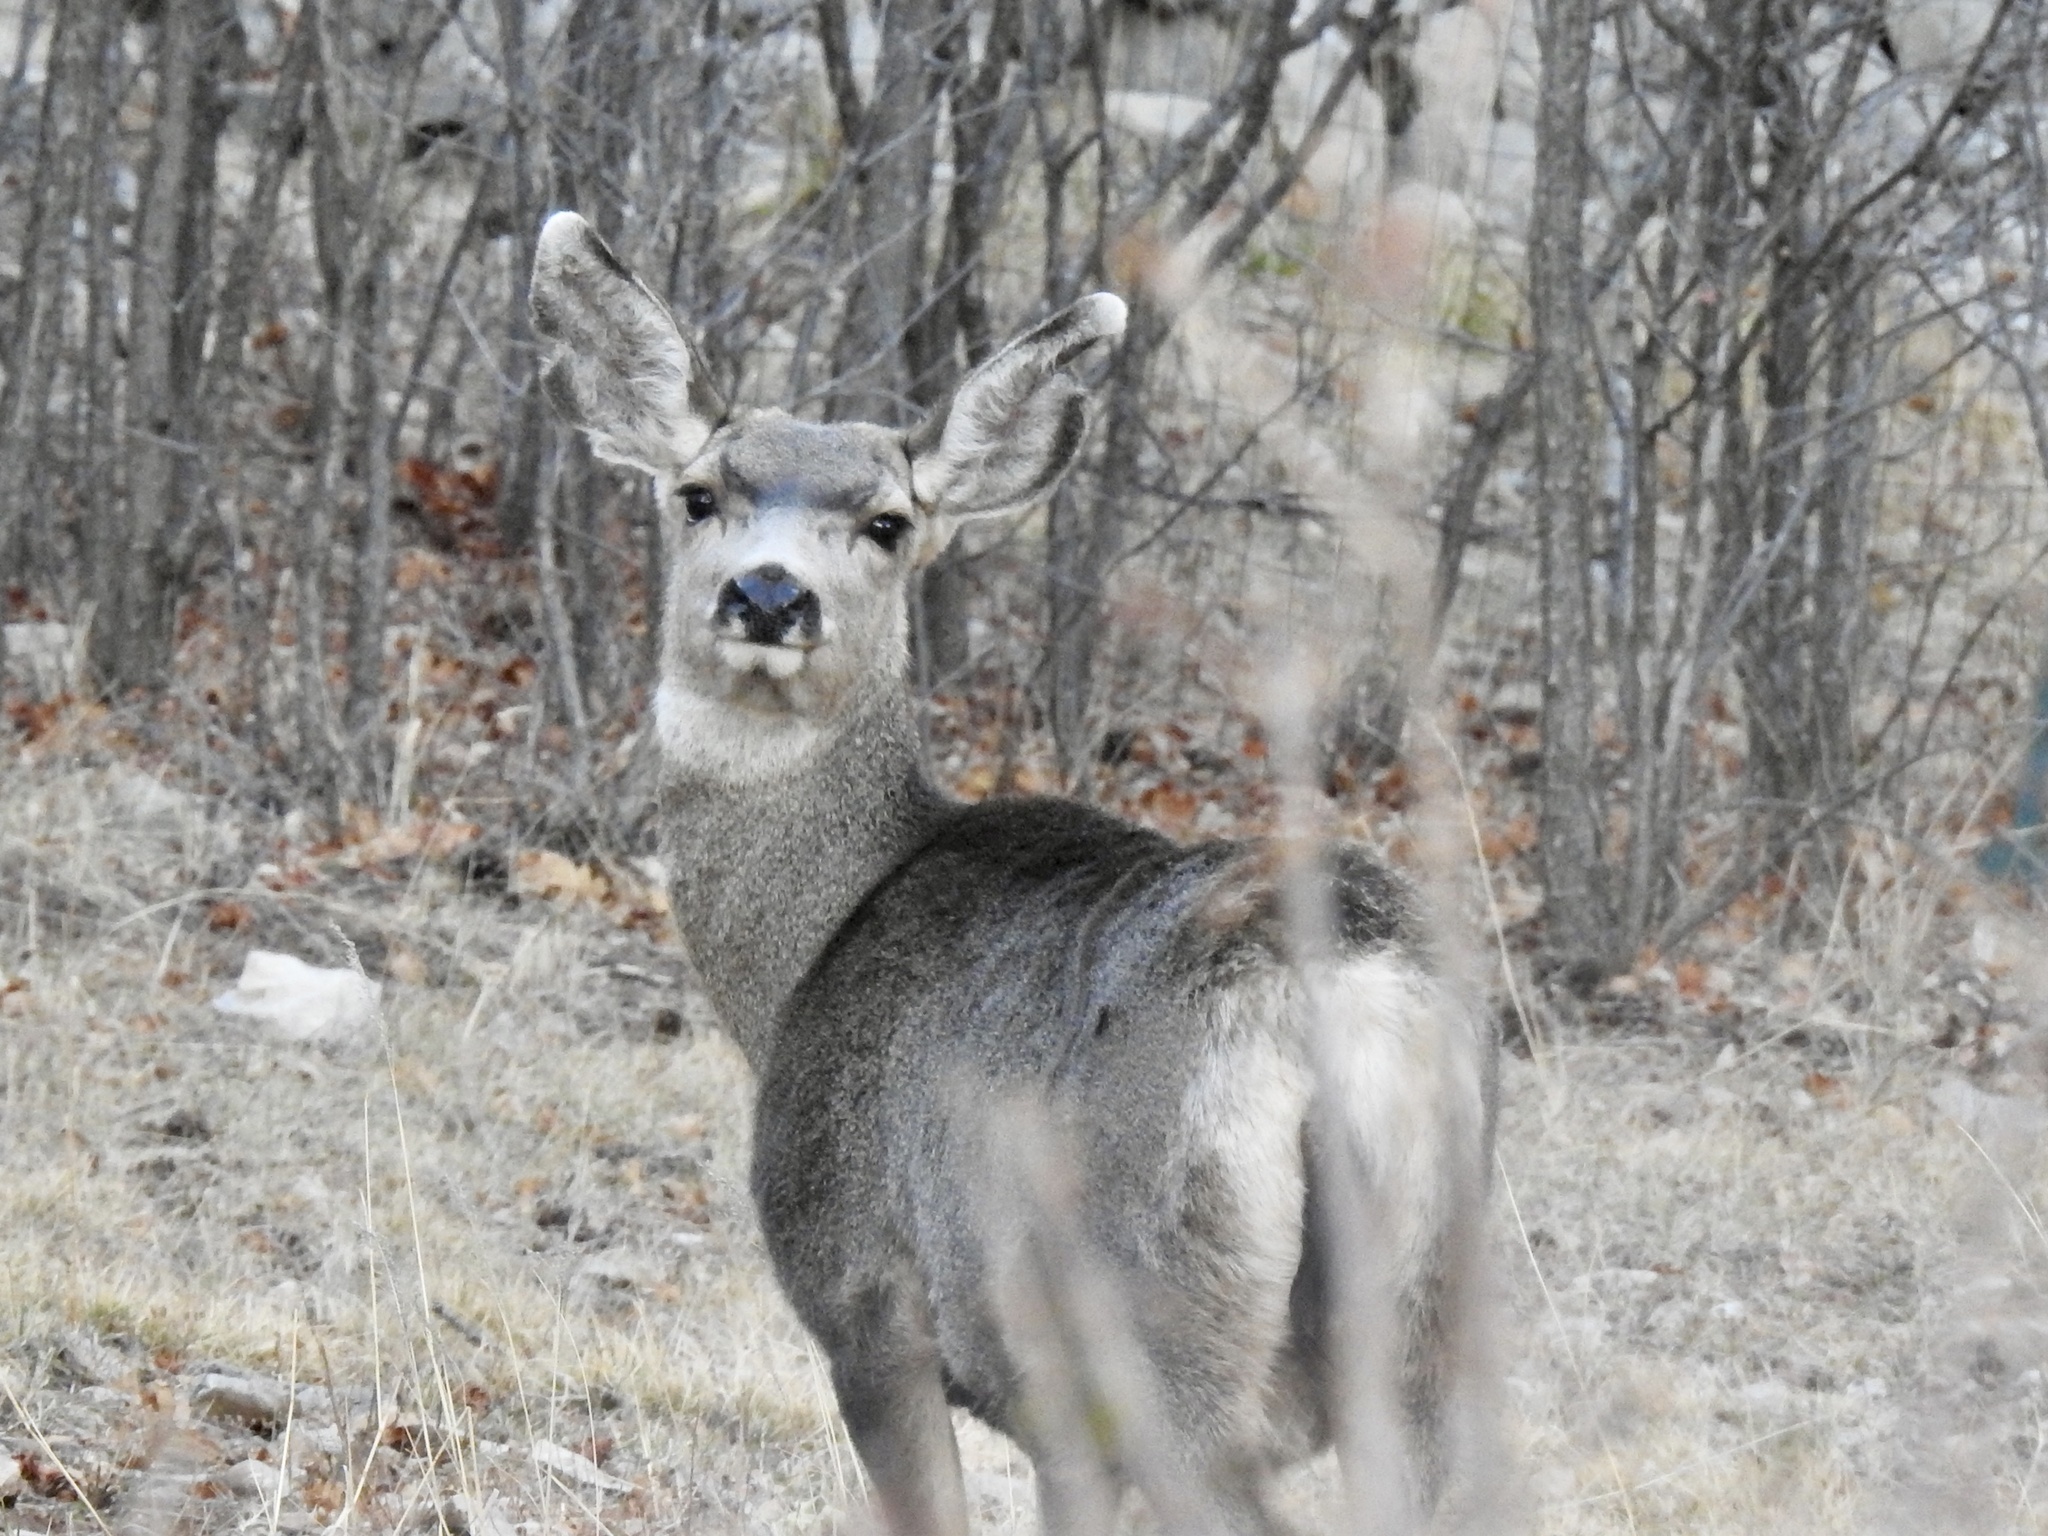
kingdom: Animalia
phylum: Chordata
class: Mammalia
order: Artiodactyla
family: Cervidae
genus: Odocoileus
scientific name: Odocoileus hemionus
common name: Mule deer
